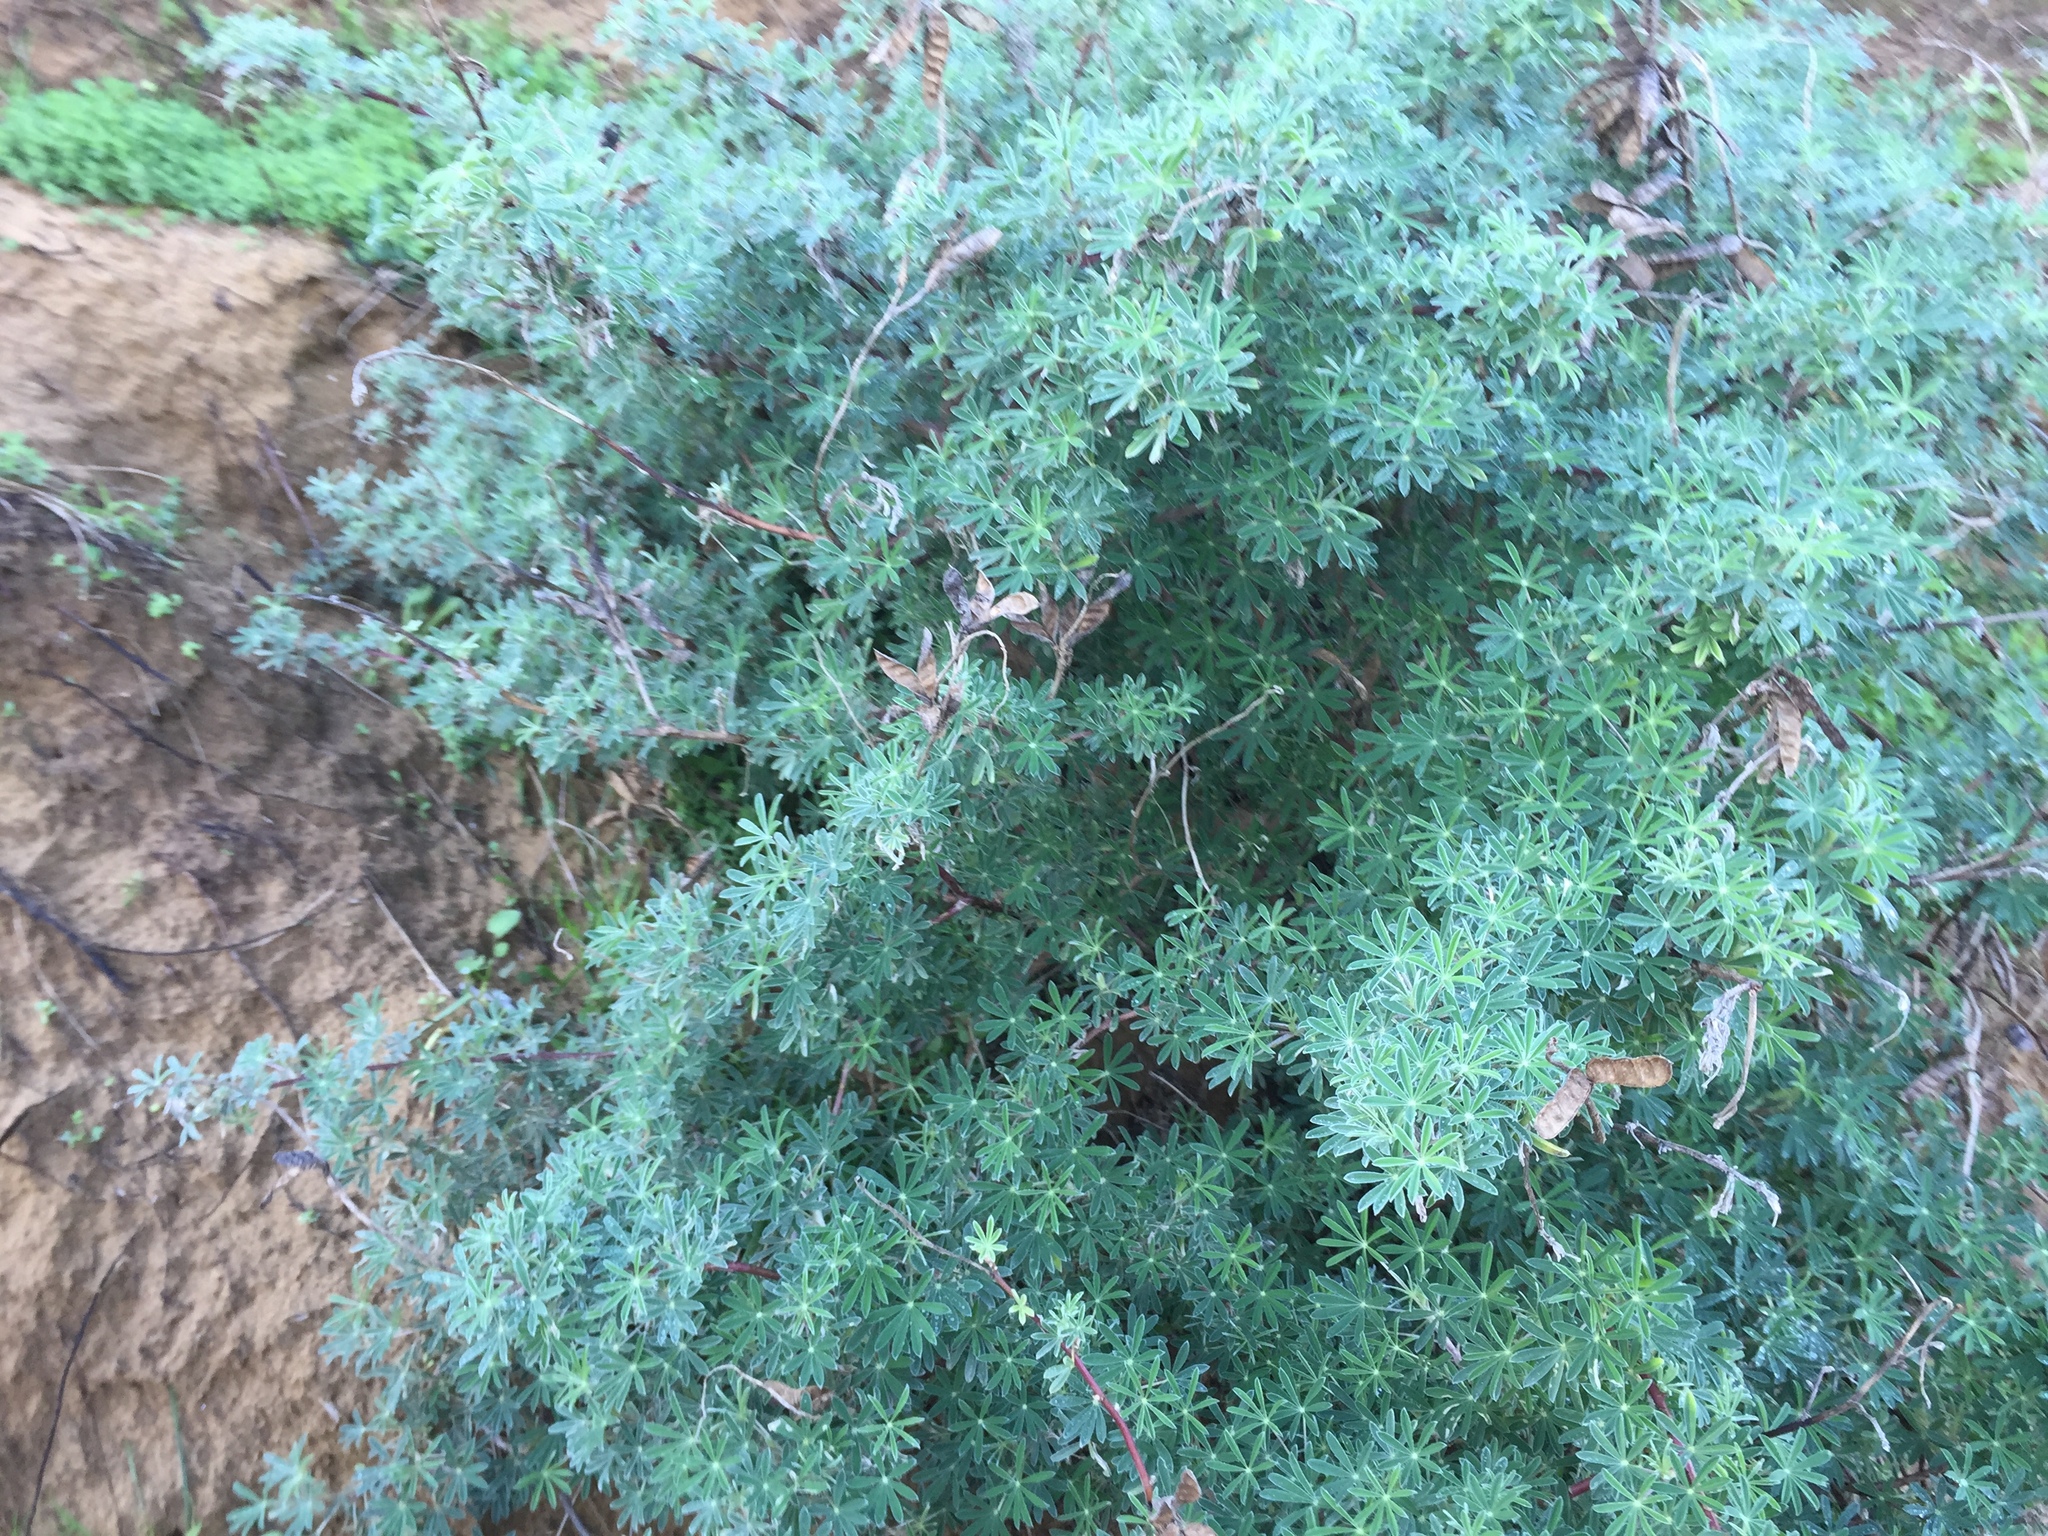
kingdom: Plantae
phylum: Tracheophyta
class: Magnoliopsida
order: Fabales
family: Fabaceae
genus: Lupinus
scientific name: Lupinus arboreus
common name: Yellow bush lupine
